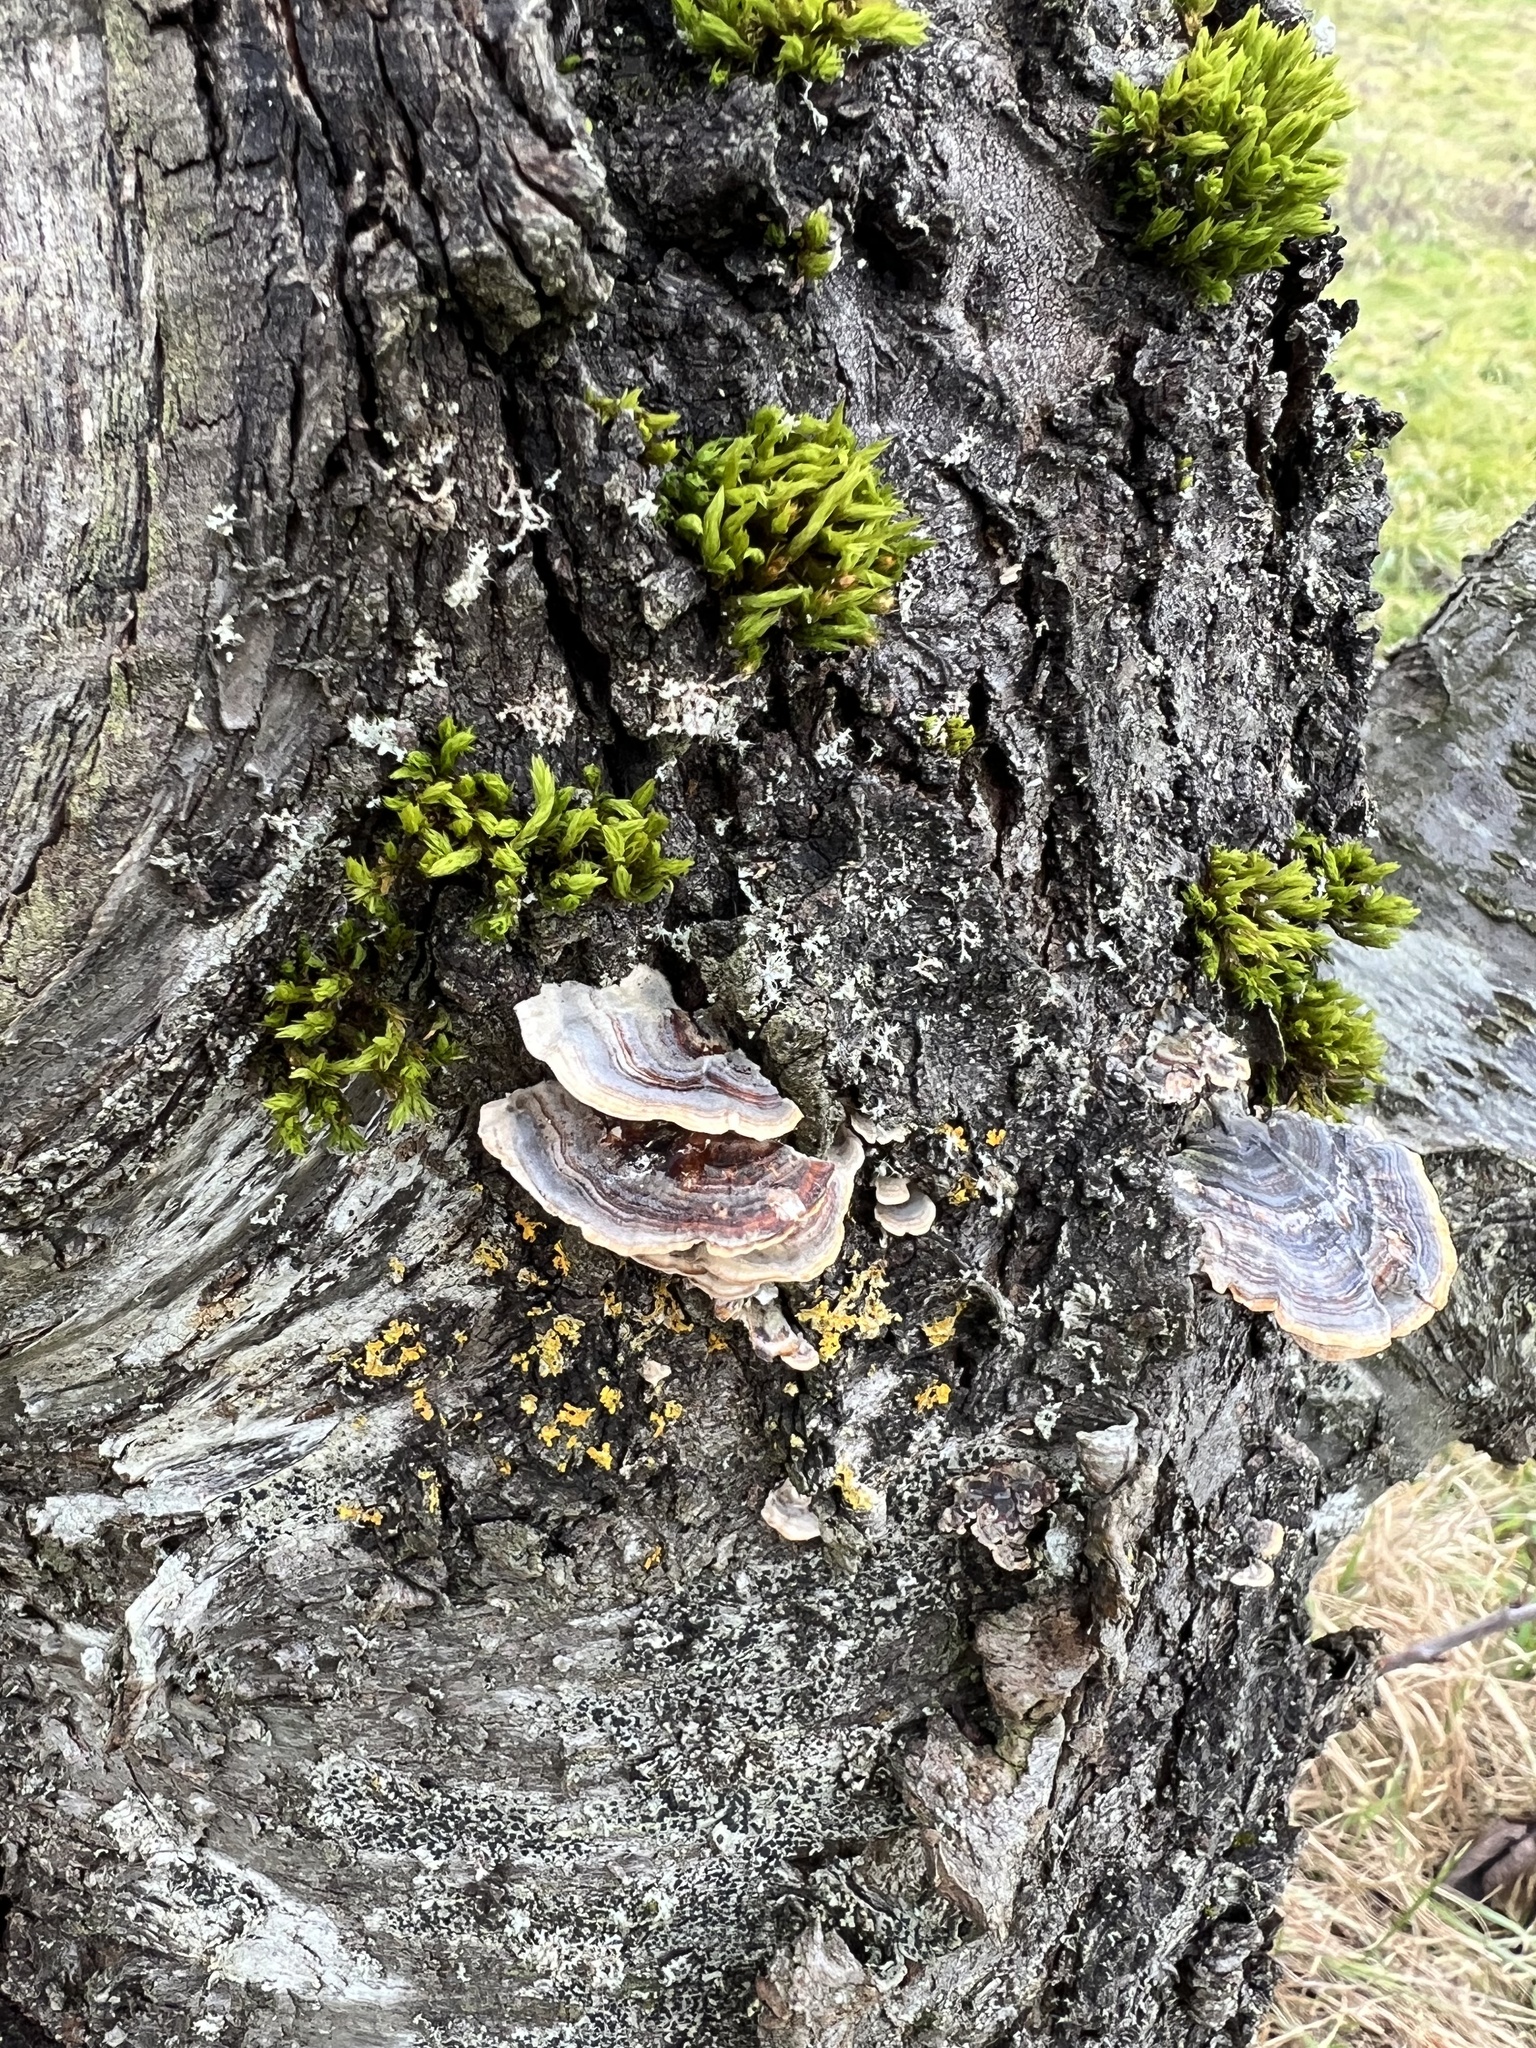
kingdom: Fungi
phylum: Basidiomycota
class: Agaricomycetes
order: Polyporales
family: Polyporaceae
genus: Trametes
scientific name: Trametes versicolor
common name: Turkeytail
